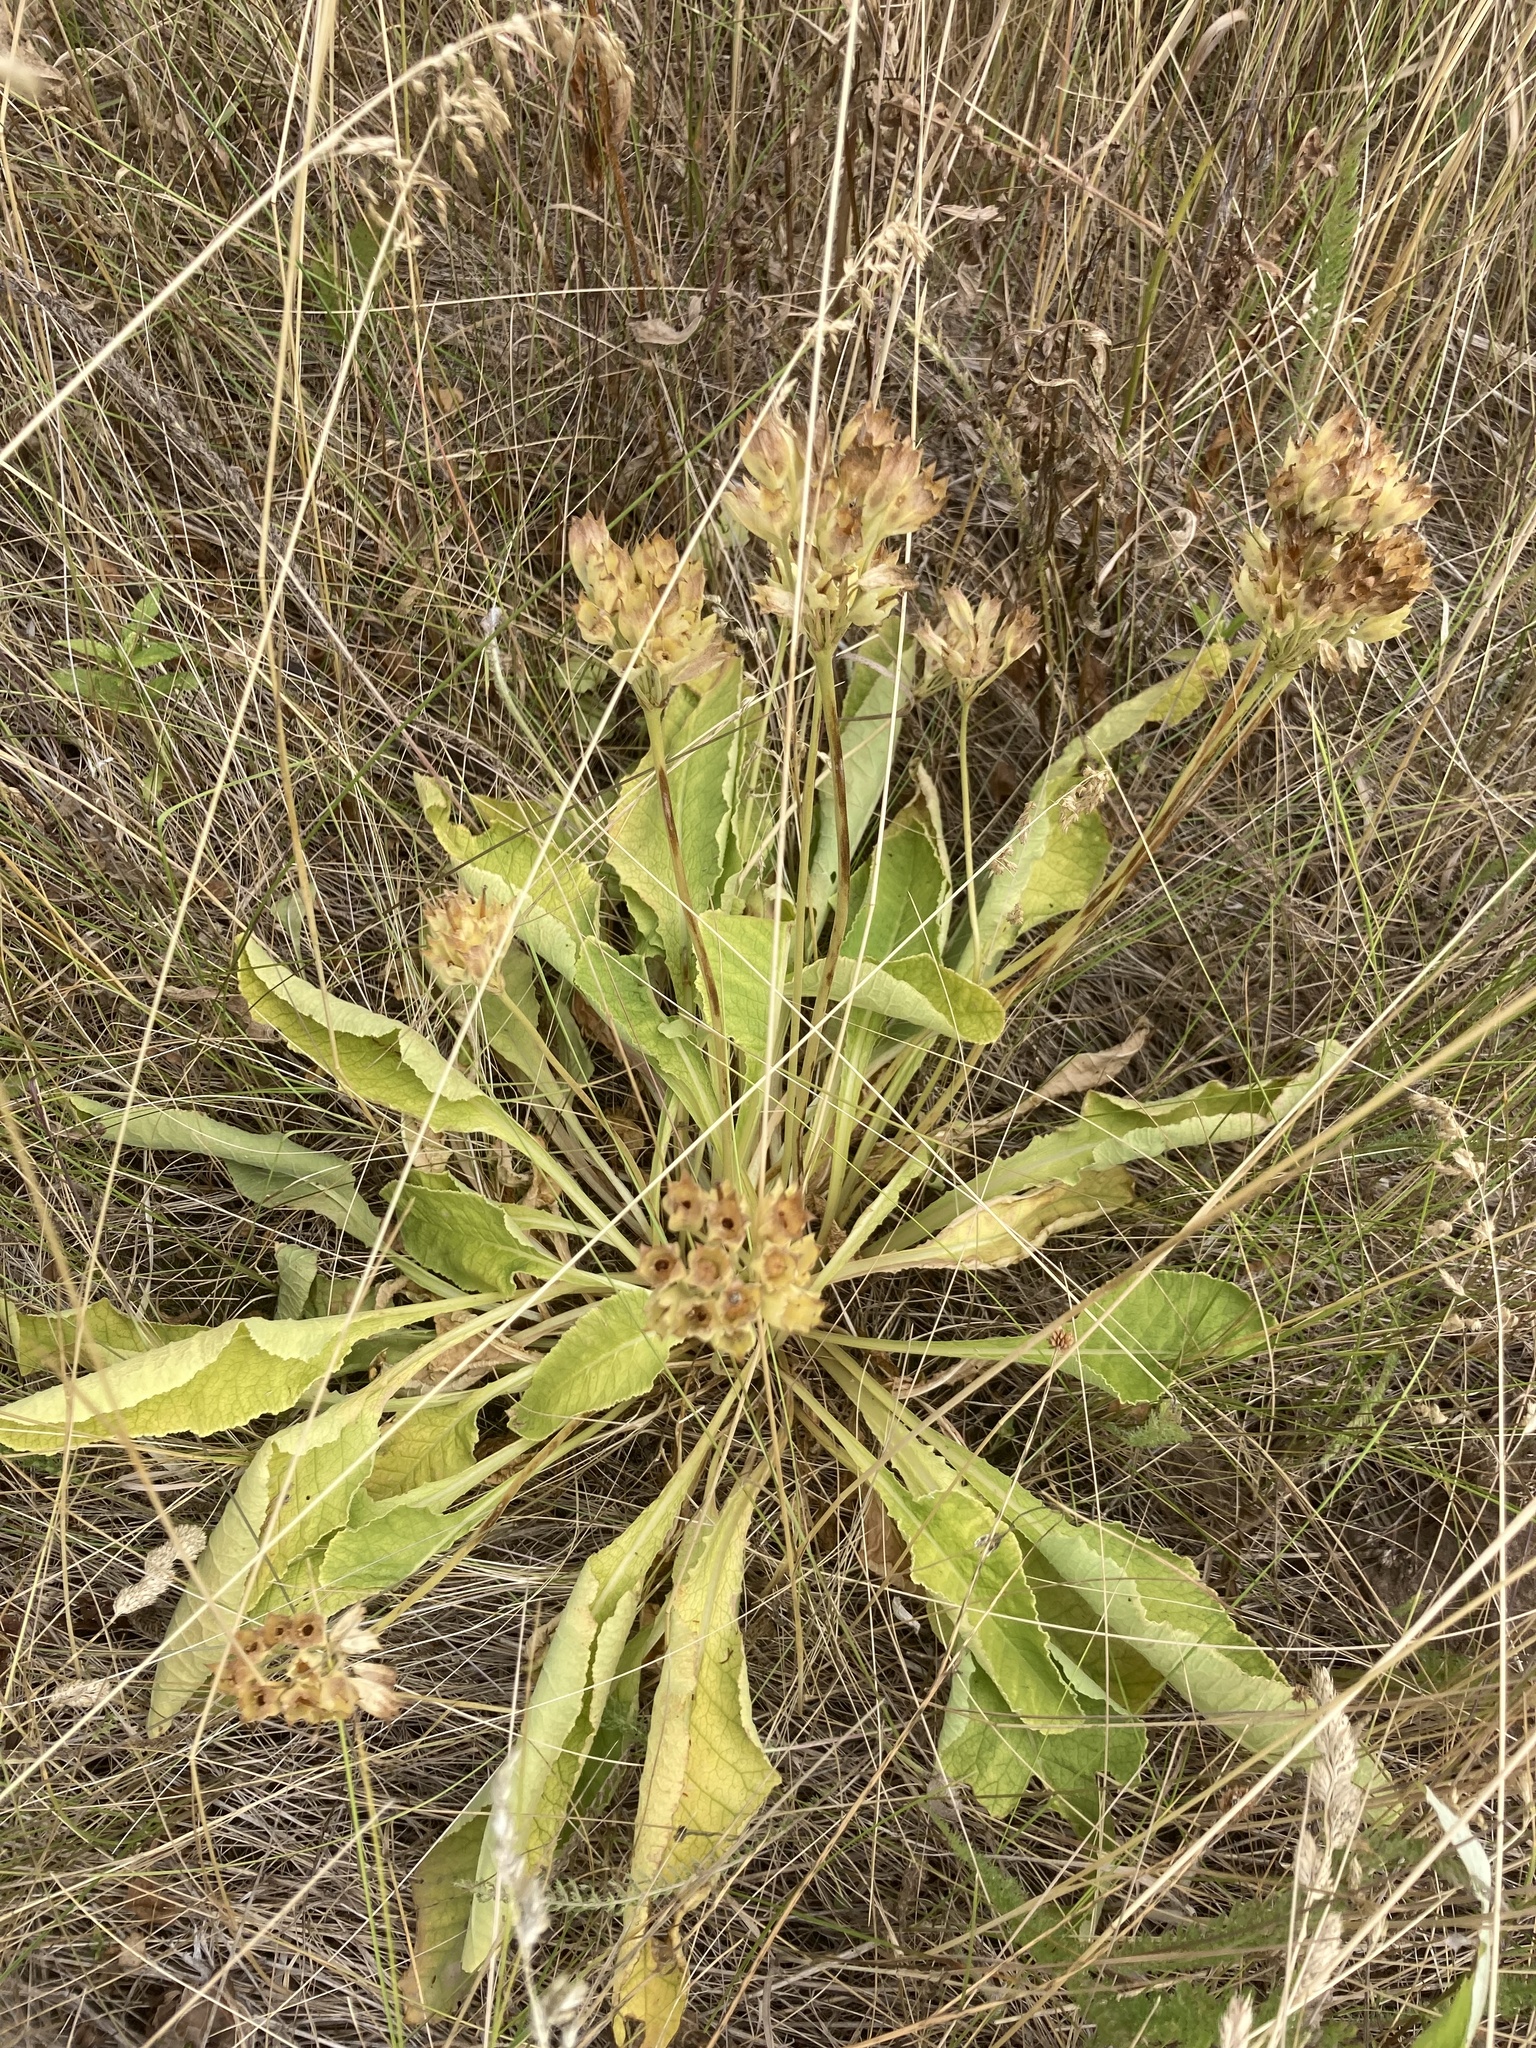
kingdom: Plantae
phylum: Tracheophyta
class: Magnoliopsida
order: Ericales
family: Primulaceae
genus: Primula
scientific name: Primula veris
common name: Cowslip
